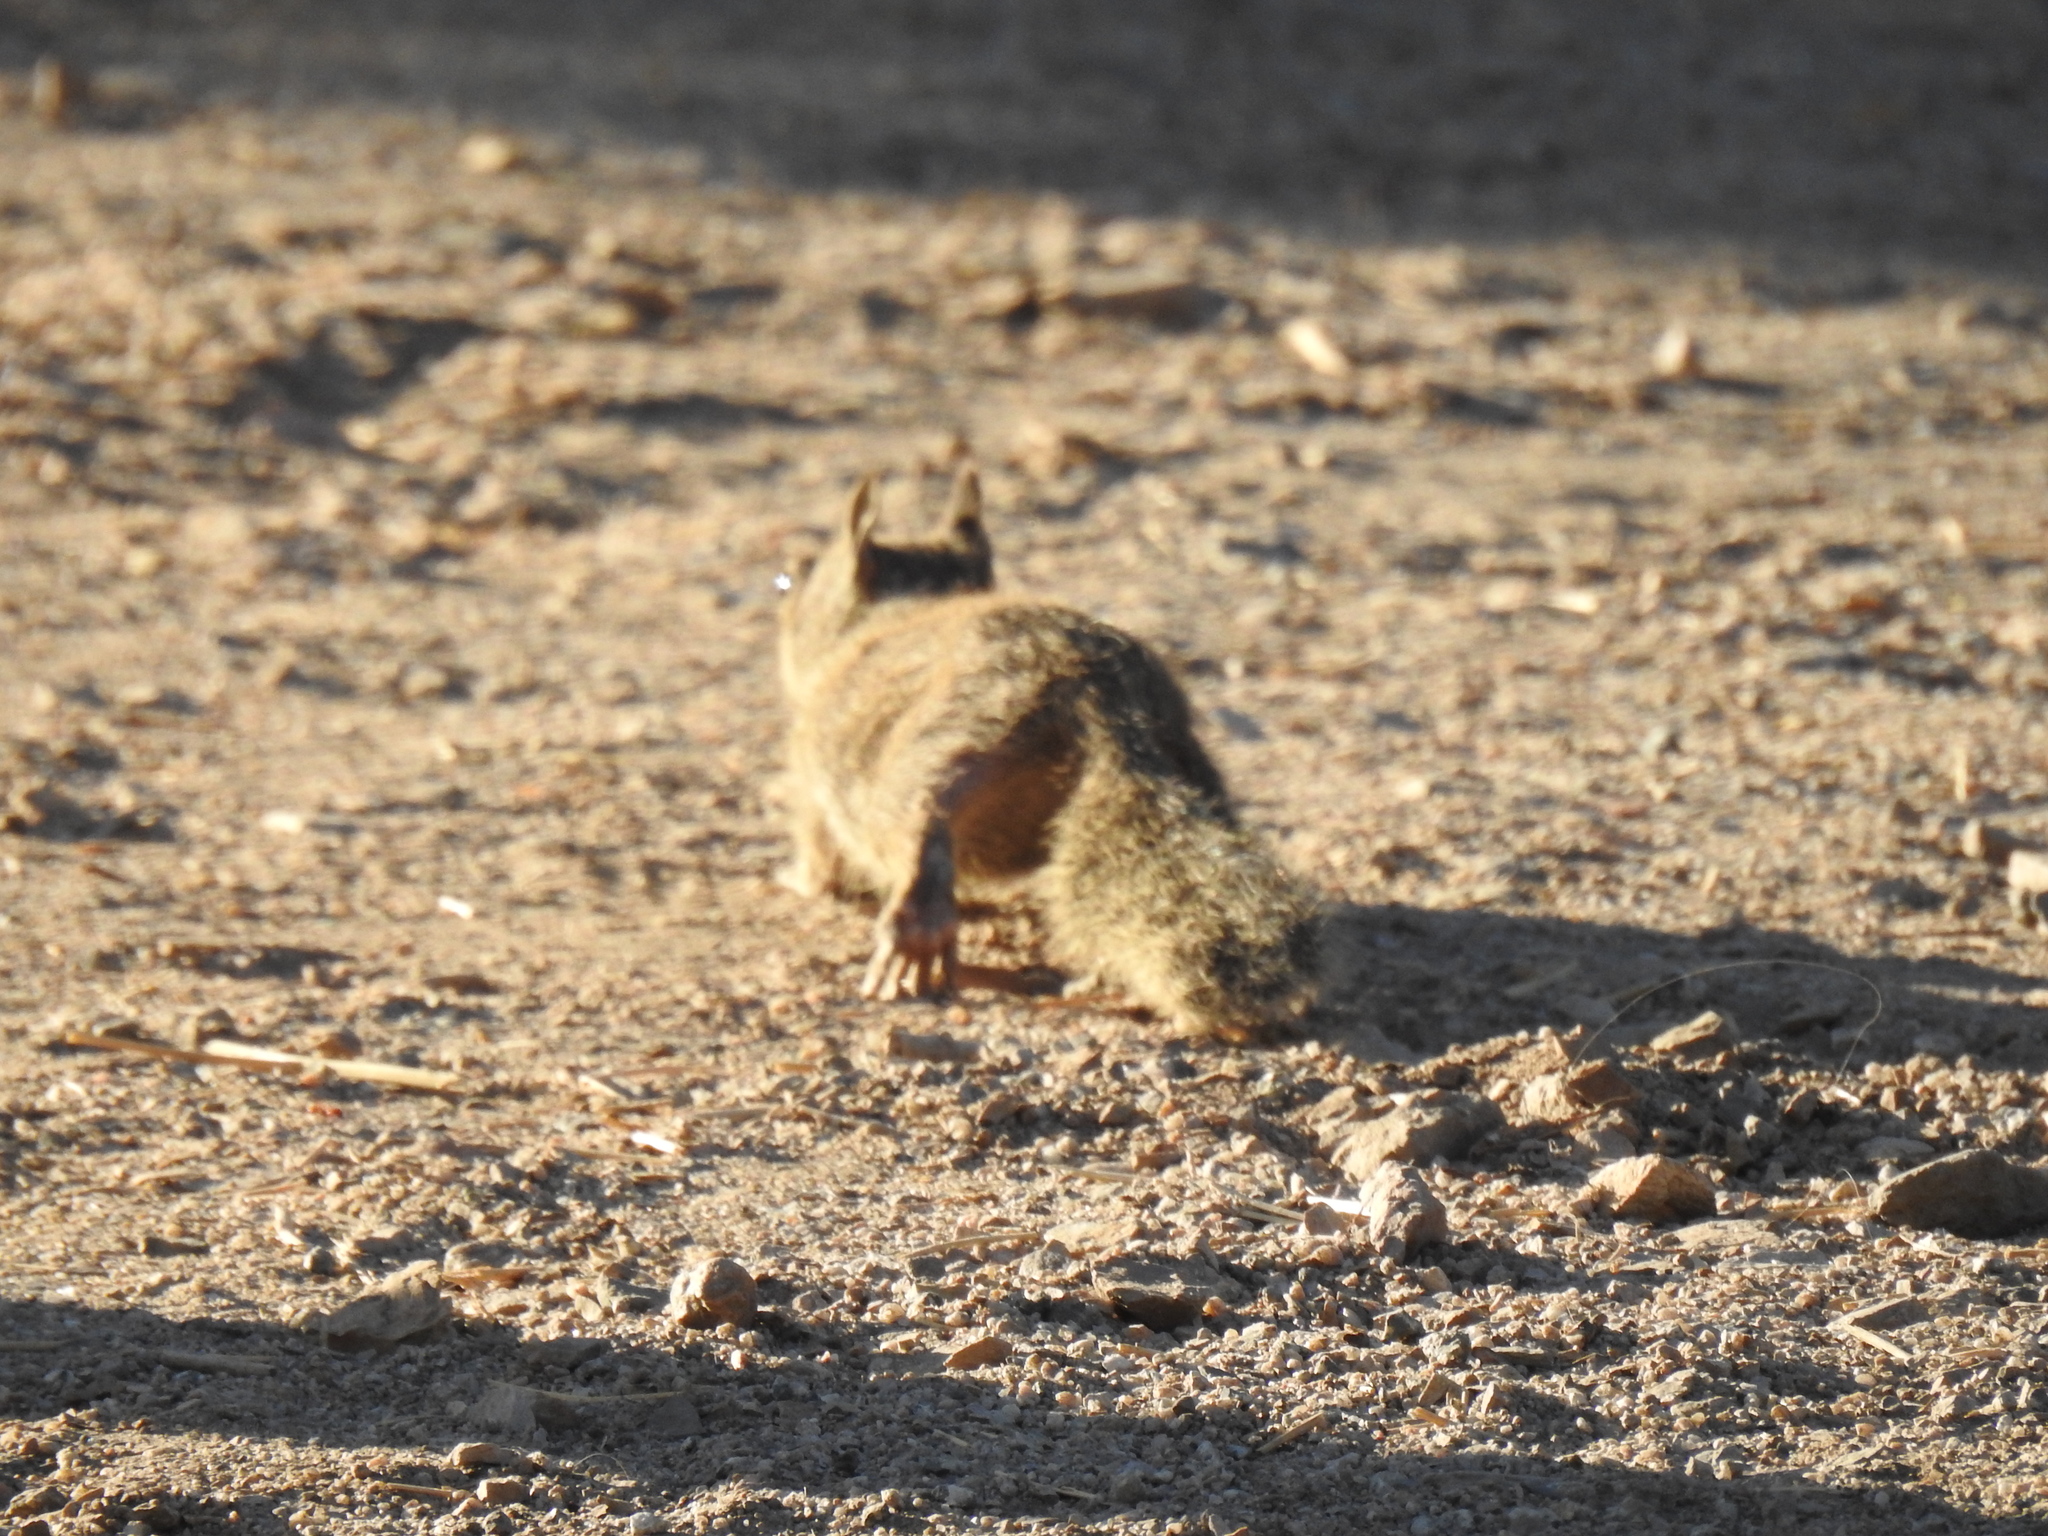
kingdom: Animalia
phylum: Chordata
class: Mammalia
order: Rodentia
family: Sciuridae
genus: Otospermophilus
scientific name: Otospermophilus beecheyi
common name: California ground squirrel
